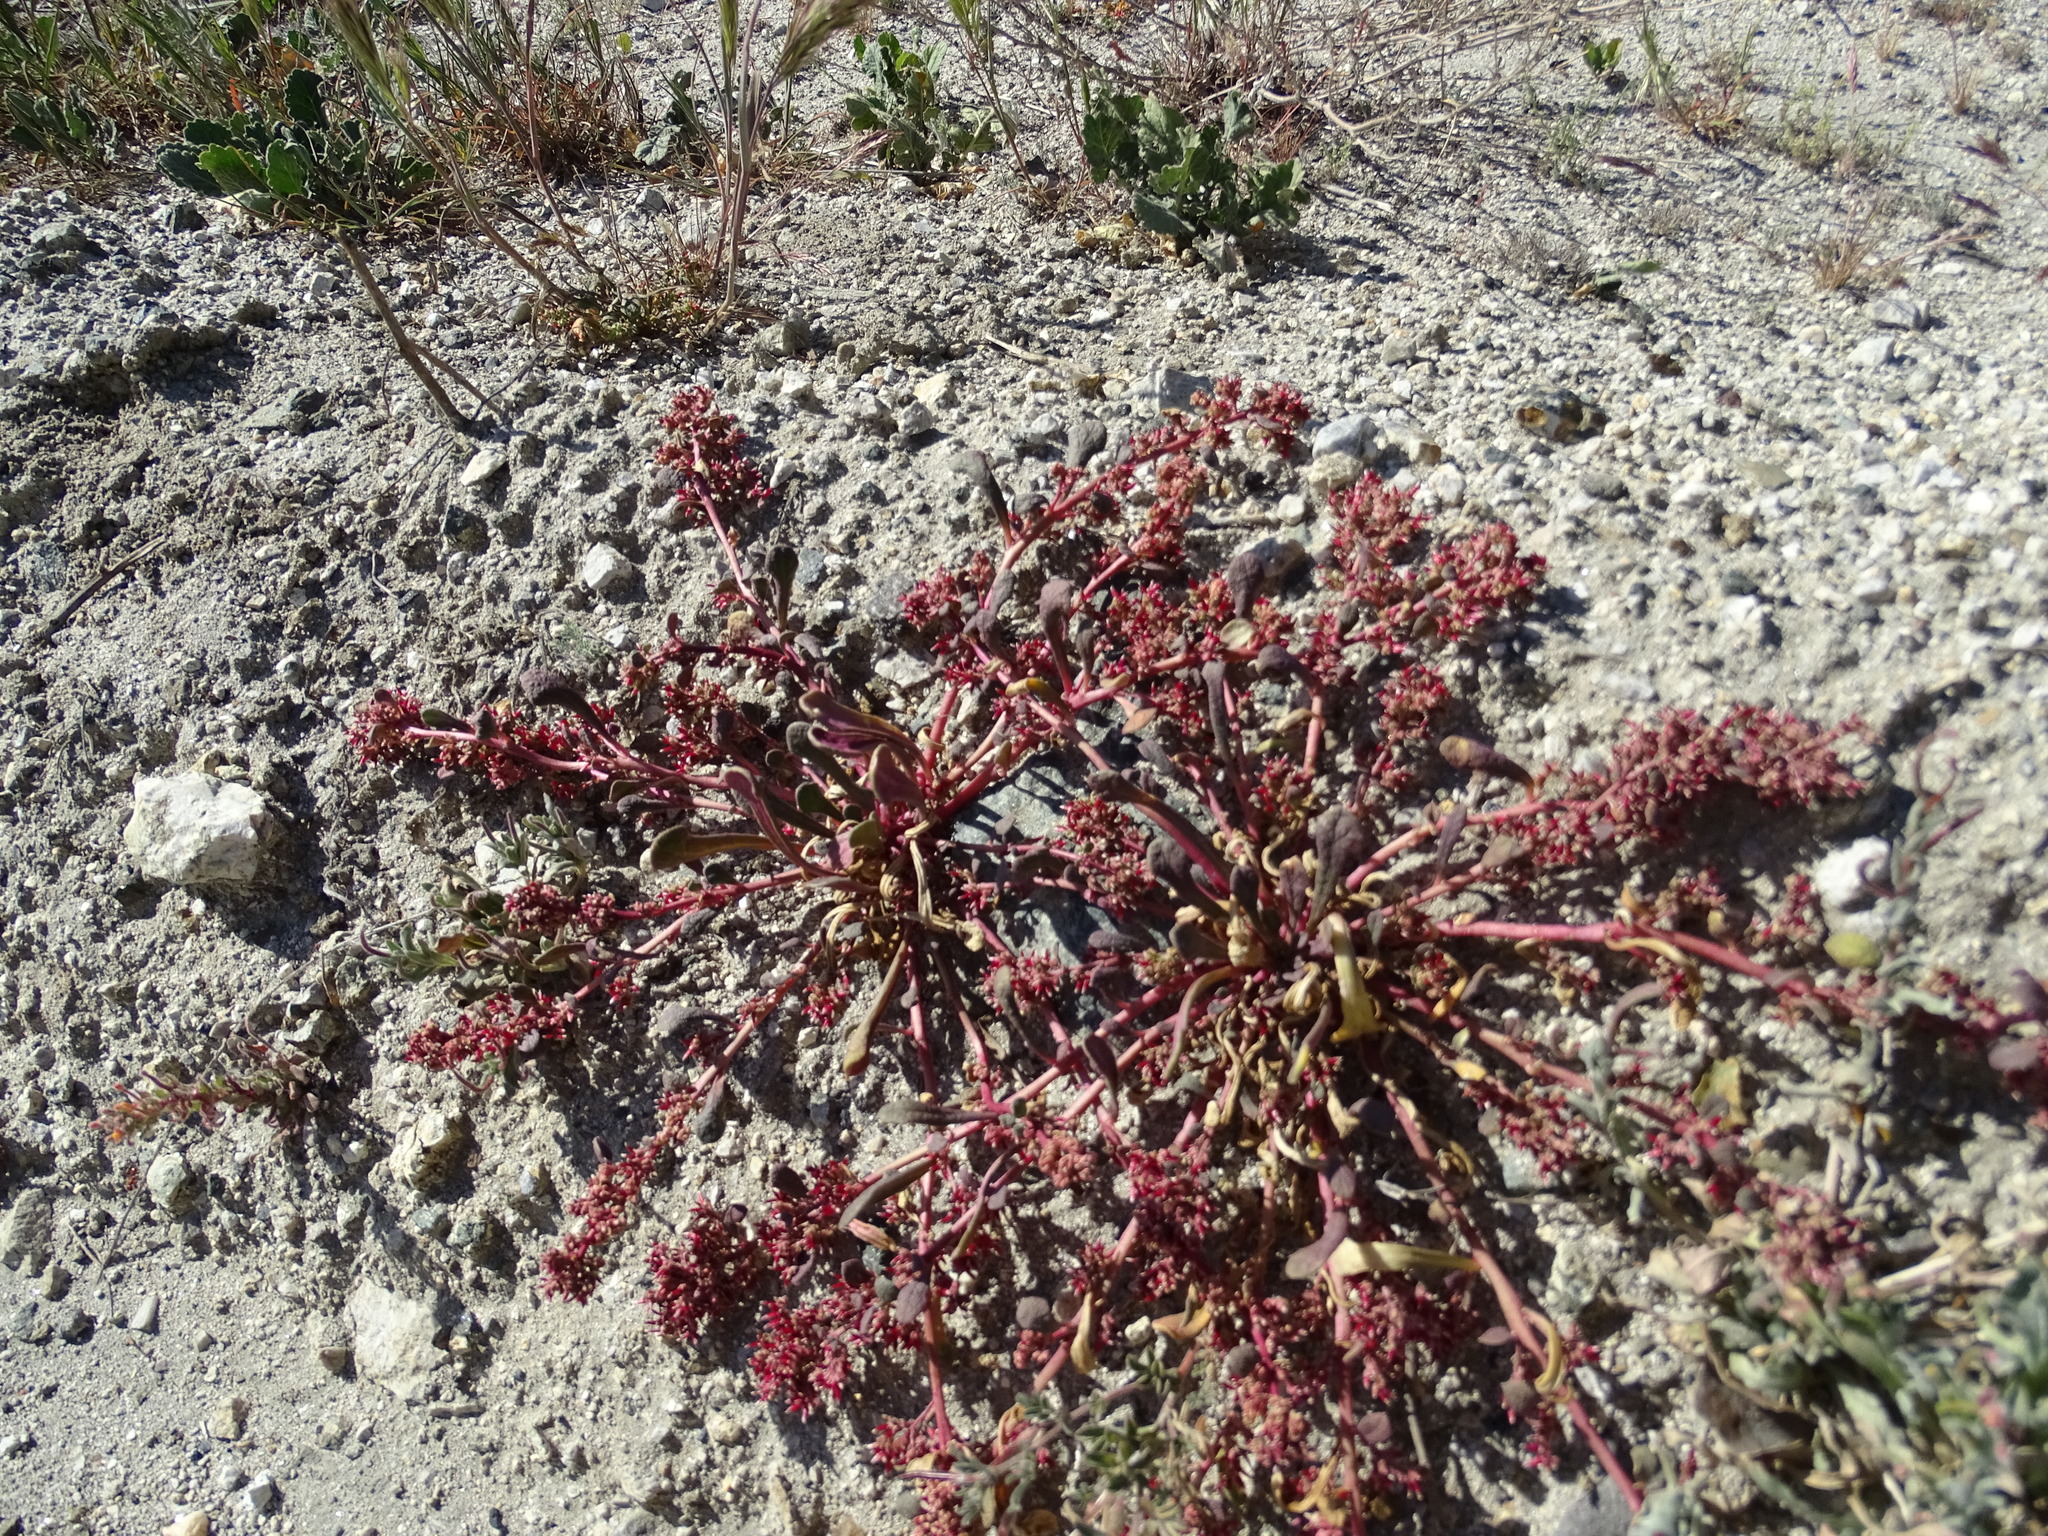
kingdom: Plantae
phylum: Tracheophyta
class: Magnoliopsida
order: Caryophyllales
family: Montiaceae
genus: Calyptridium
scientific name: Calyptridium monandrum
